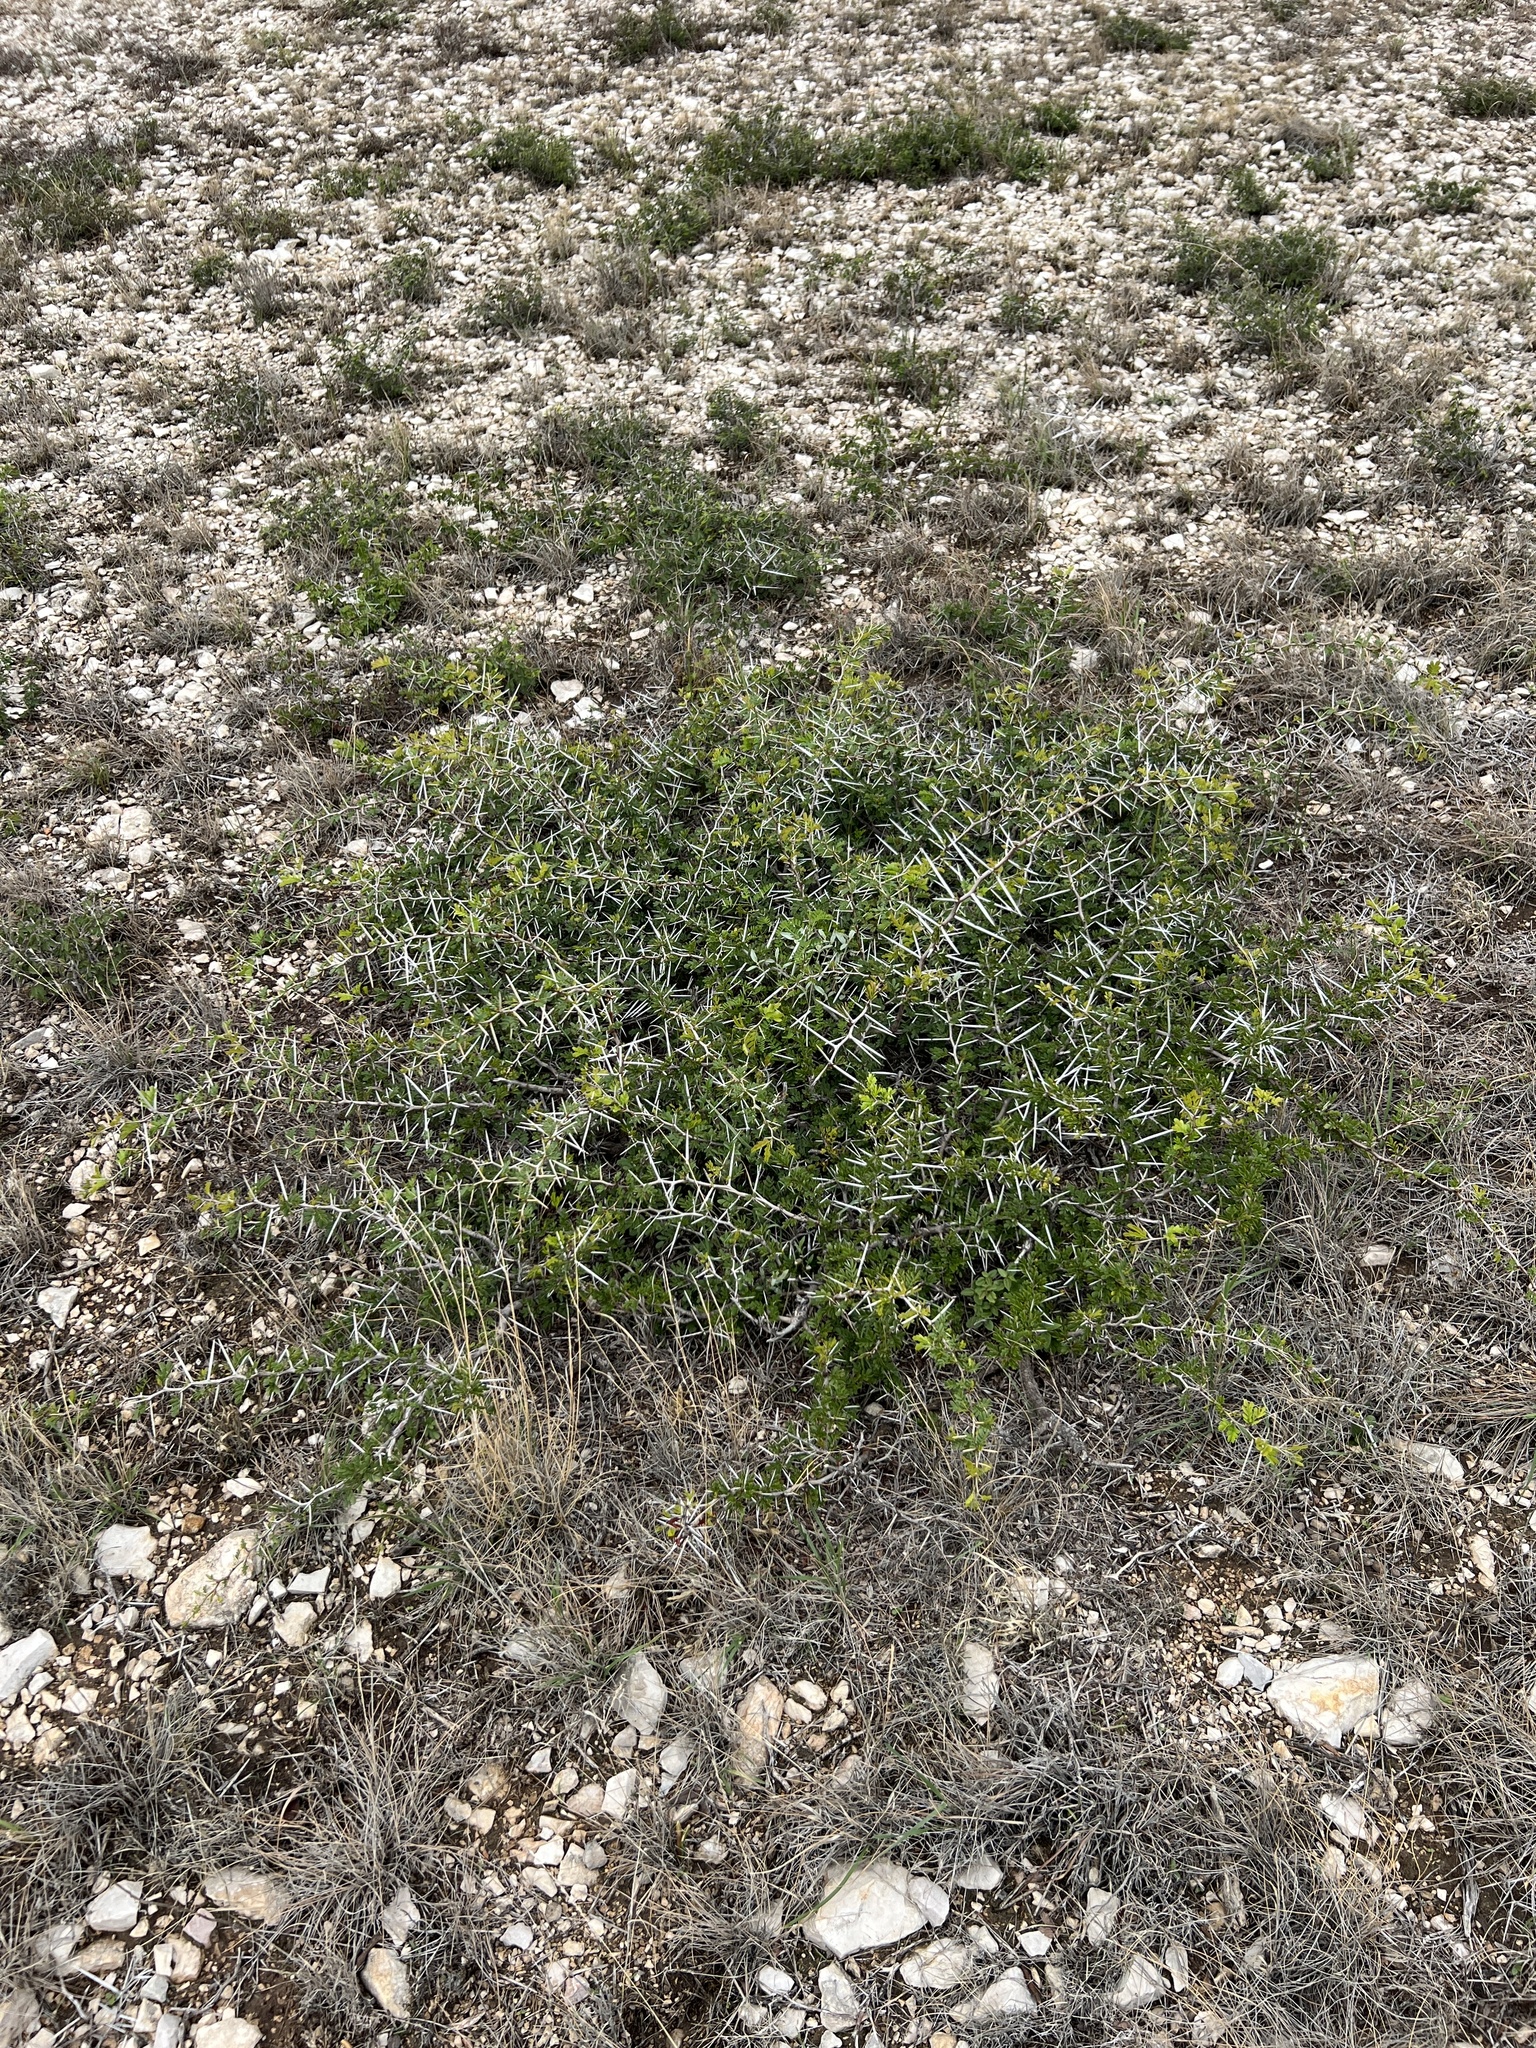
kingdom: Plantae
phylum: Tracheophyta
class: Magnoliopsida
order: Fabales
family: Fabaceae
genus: Vachellia
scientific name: Vachellia rigidula
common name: Blackbrush
